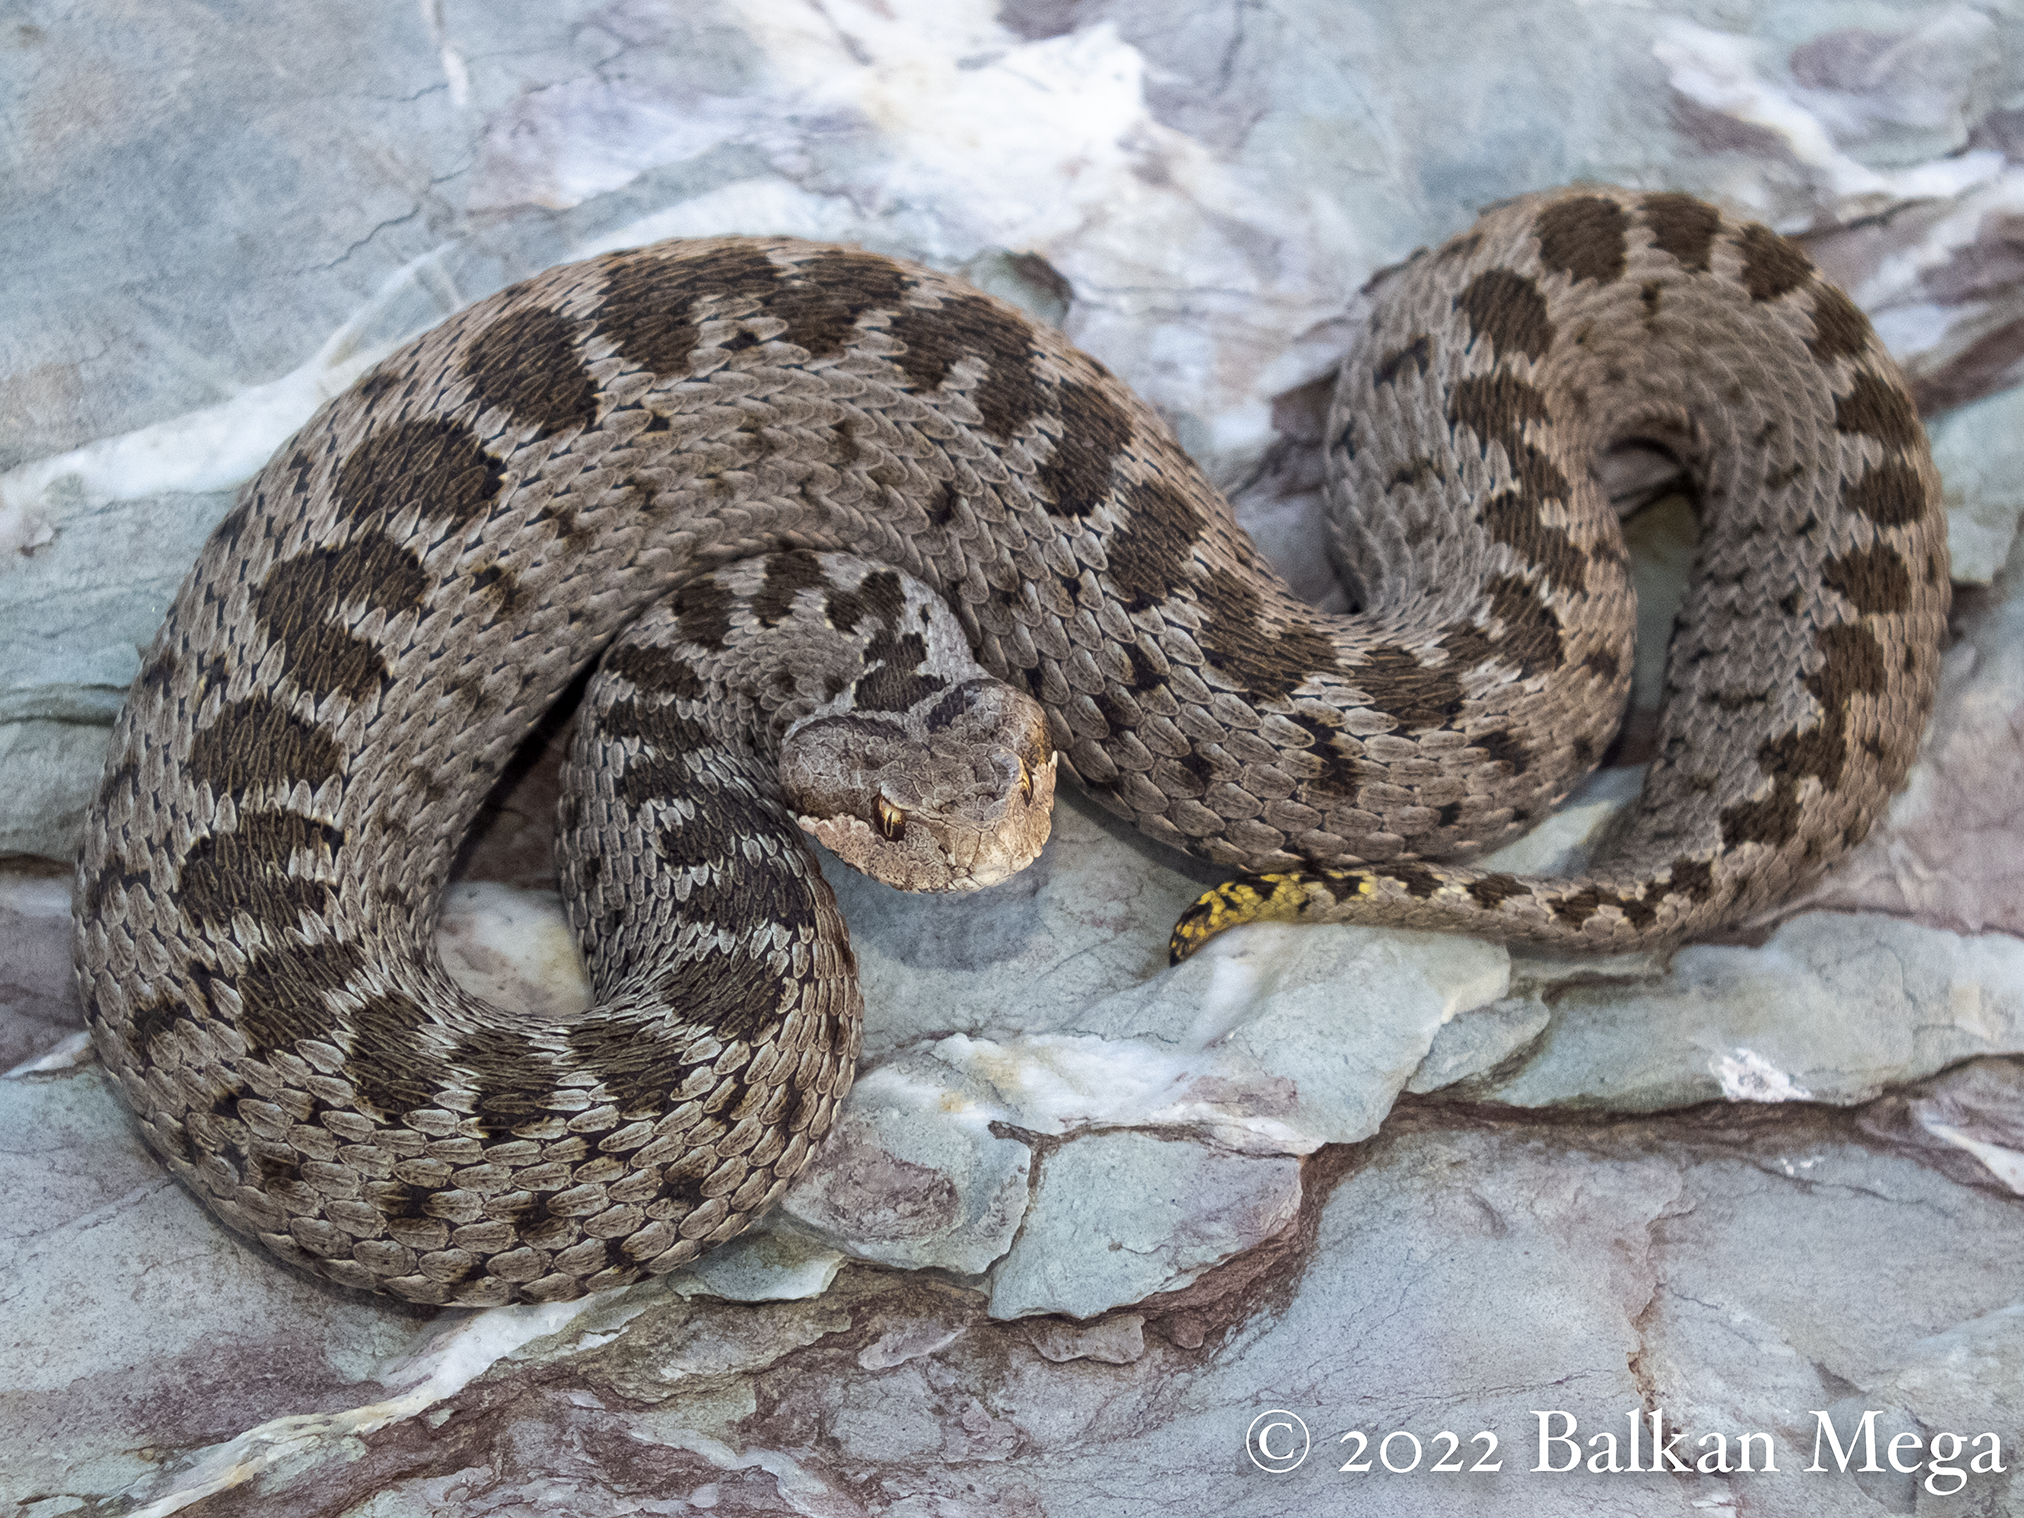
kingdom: Animalia
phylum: Chordata
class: Squamata
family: Viperidae
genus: Vipera
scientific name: Vipera anatolica
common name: Anatolian meadow viper
